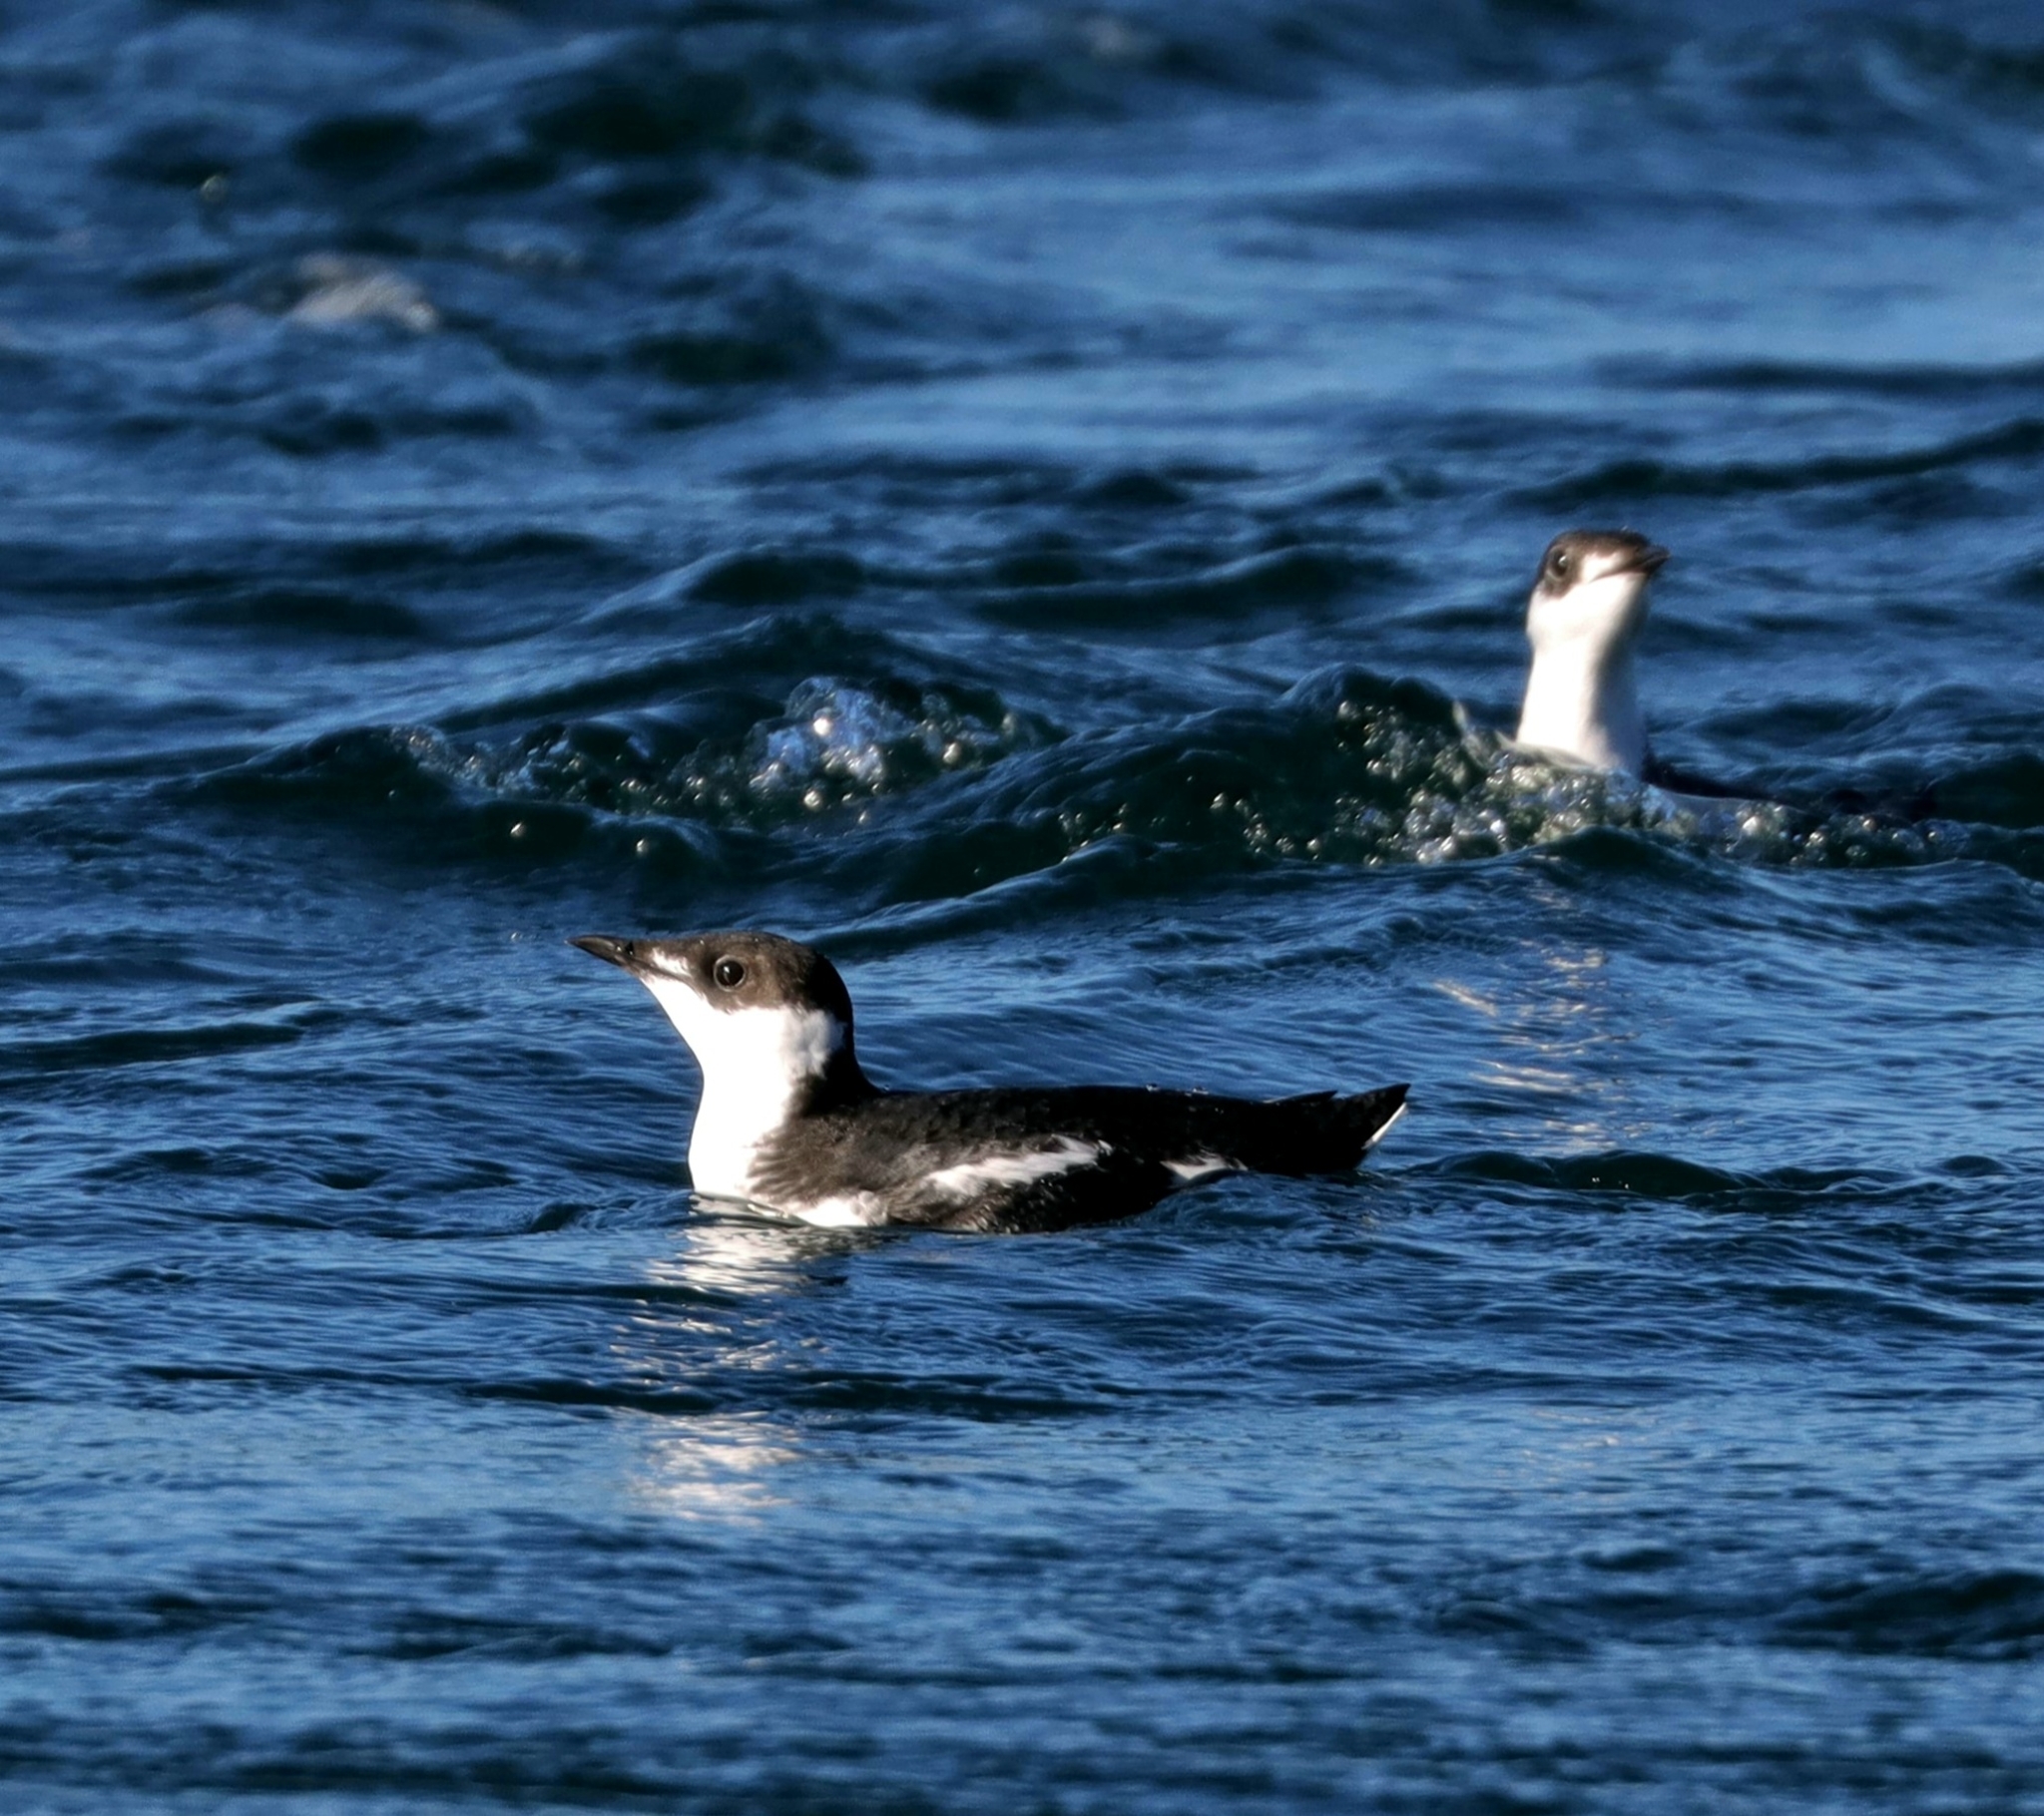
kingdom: Animalia
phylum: Chordata
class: Aves
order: Charadriiformes
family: Alcidae
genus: Brachyramphus
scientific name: Brachyramphus marmoratus
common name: Marbled murrelet
